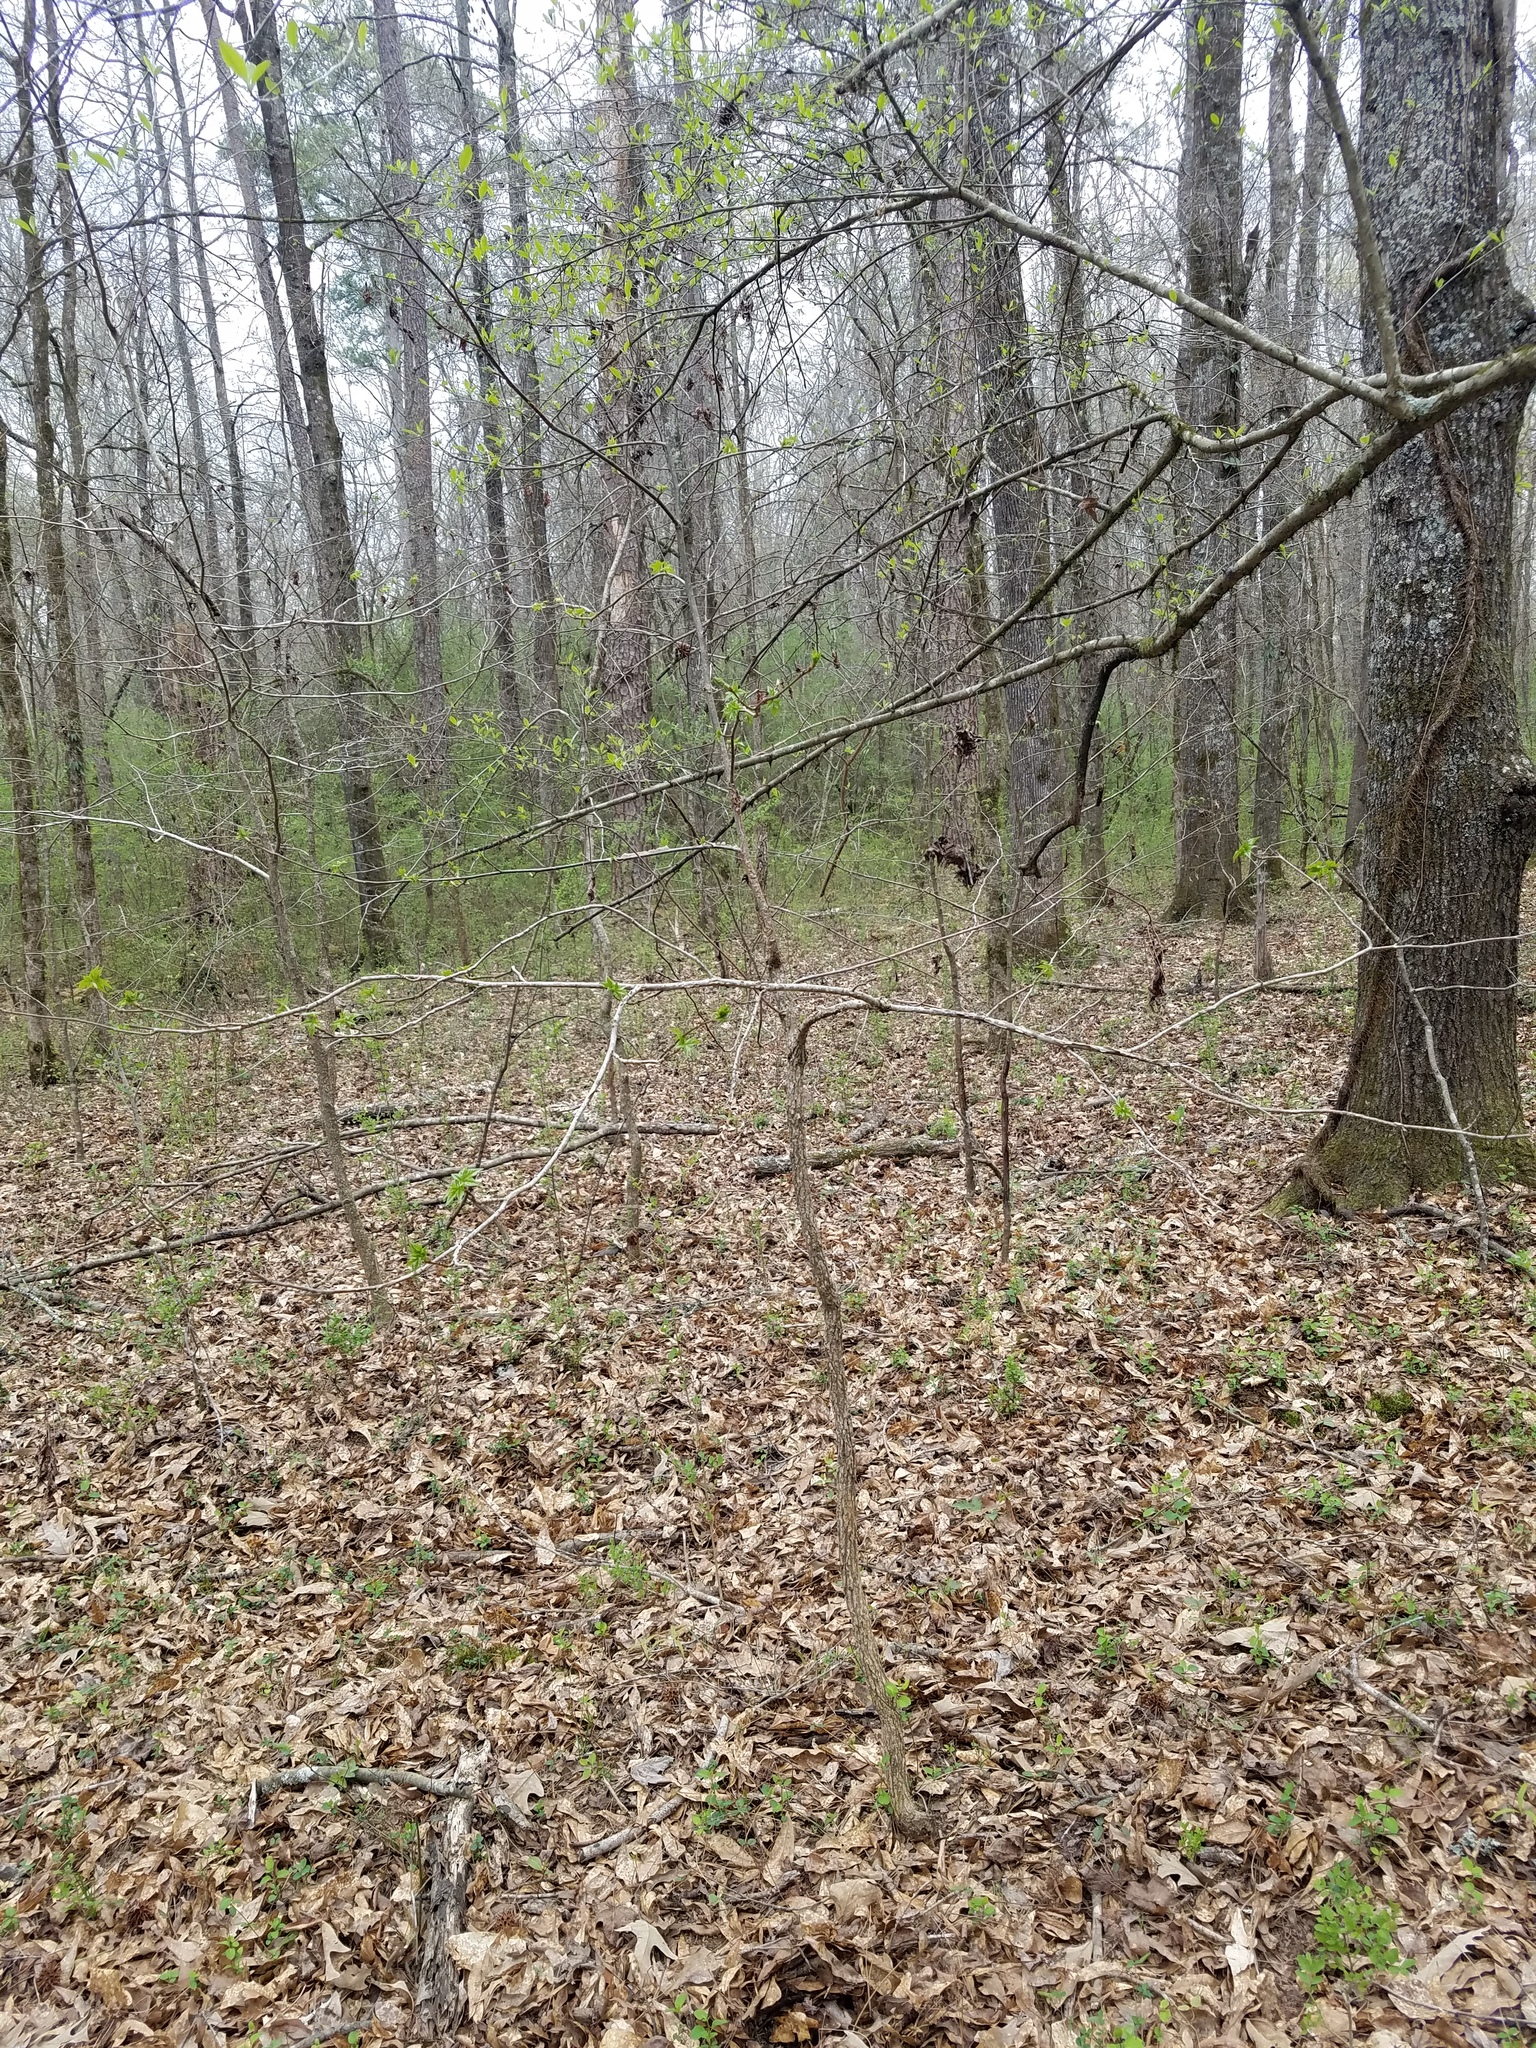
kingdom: Plantae
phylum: Tracheophyta
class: Magnoliopsida
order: Saxifragales
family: Altingiaceae
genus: Liquidambar
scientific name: Liquidambar styraciflua
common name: Sweet gum
